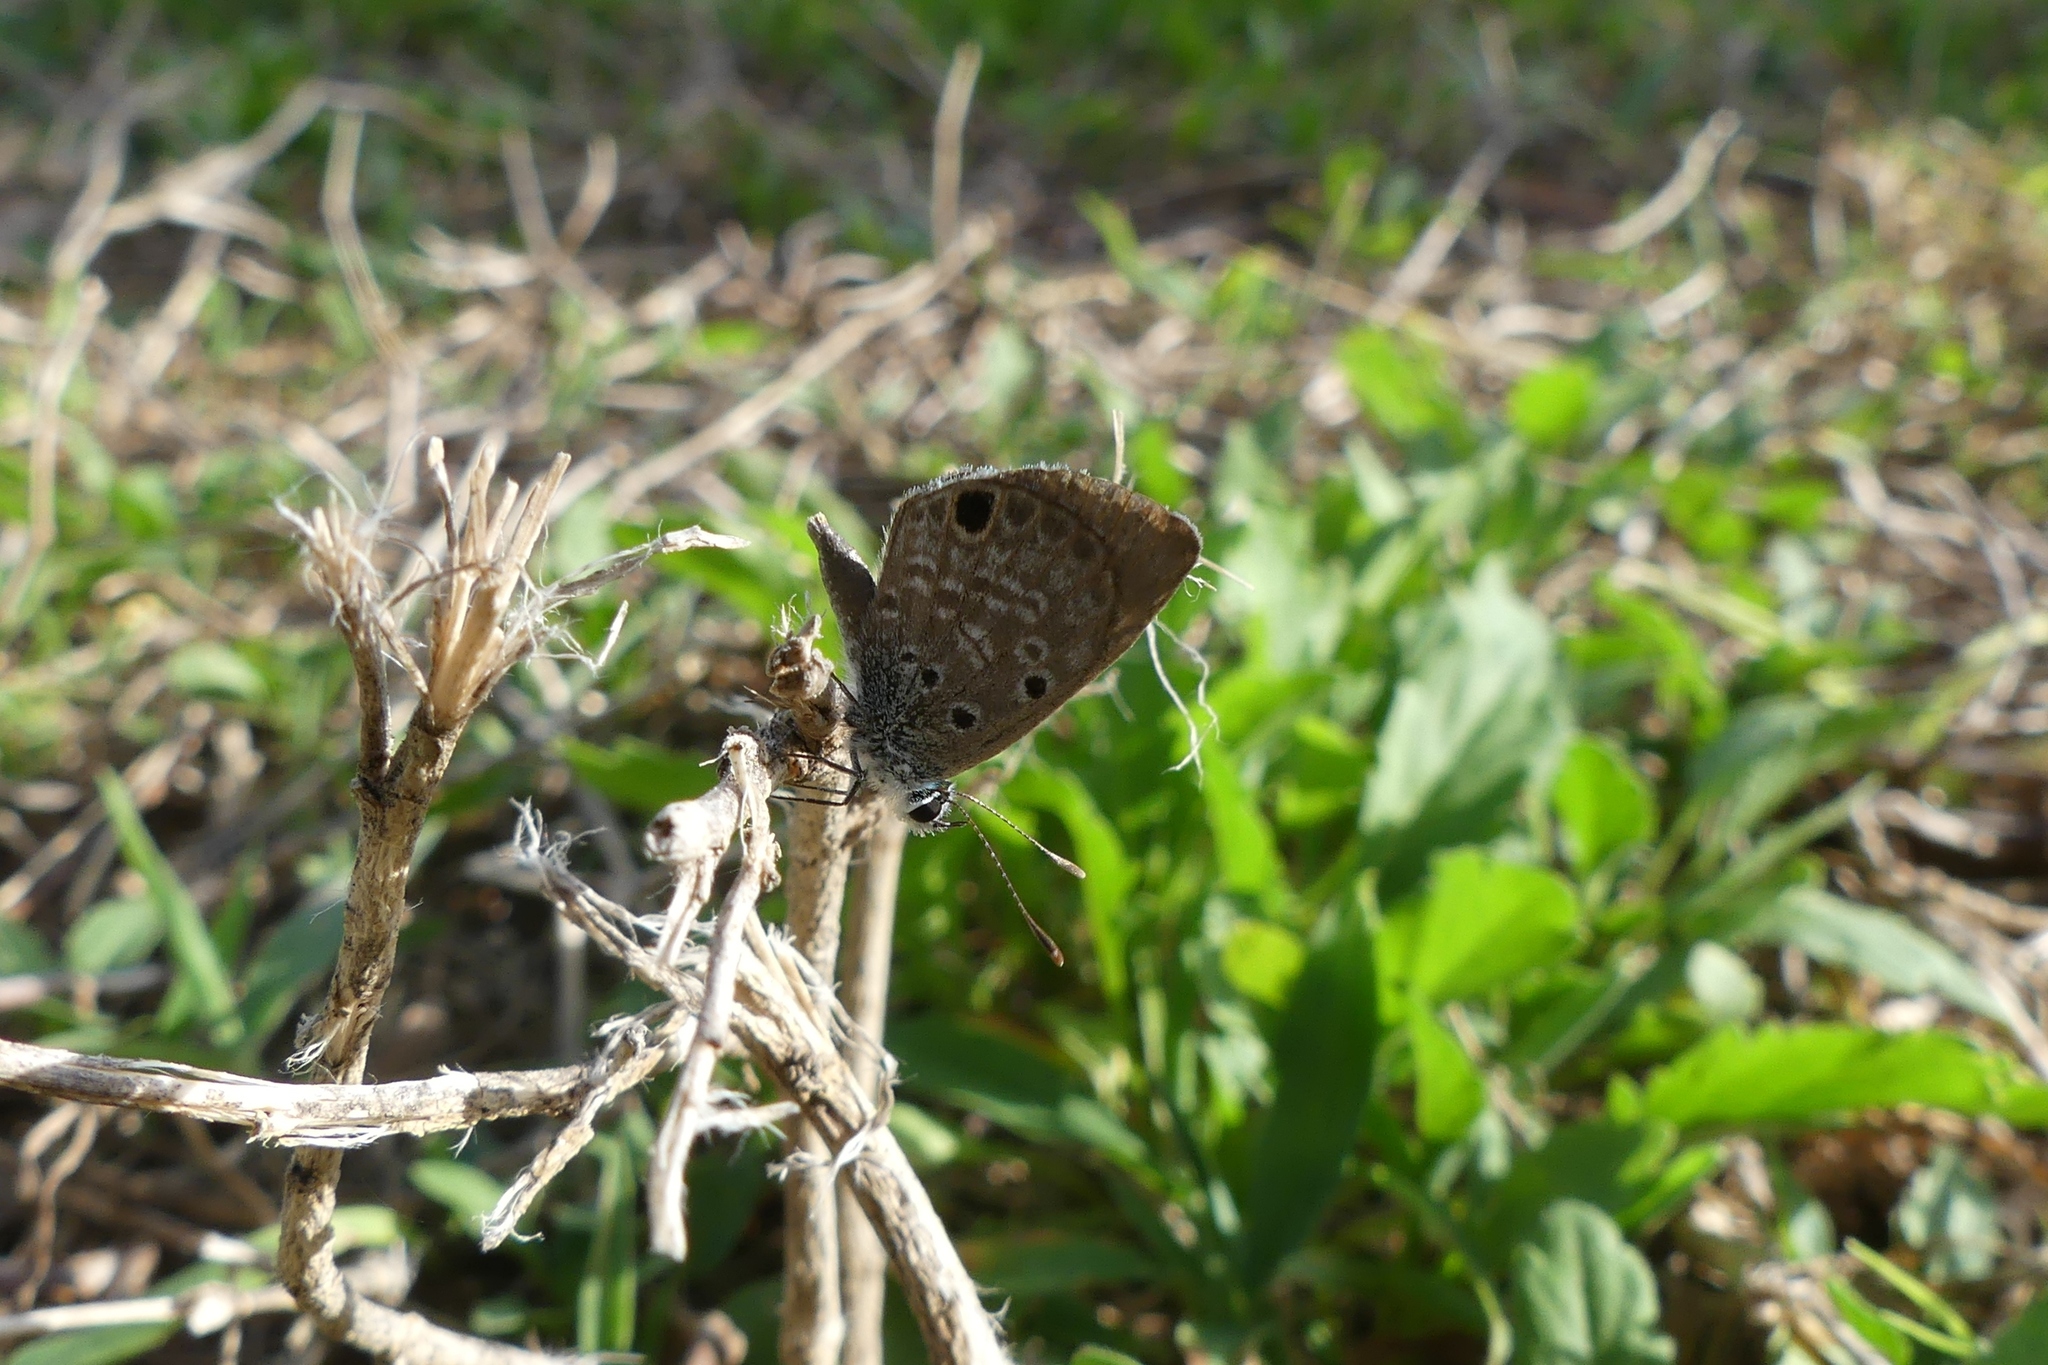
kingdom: Animalia
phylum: Arthropoda
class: Insecta
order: Lepidoptera
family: Lycaenidae
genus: Hemiargus
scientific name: Hemiargus ceraunus
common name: Ceraunus blue
